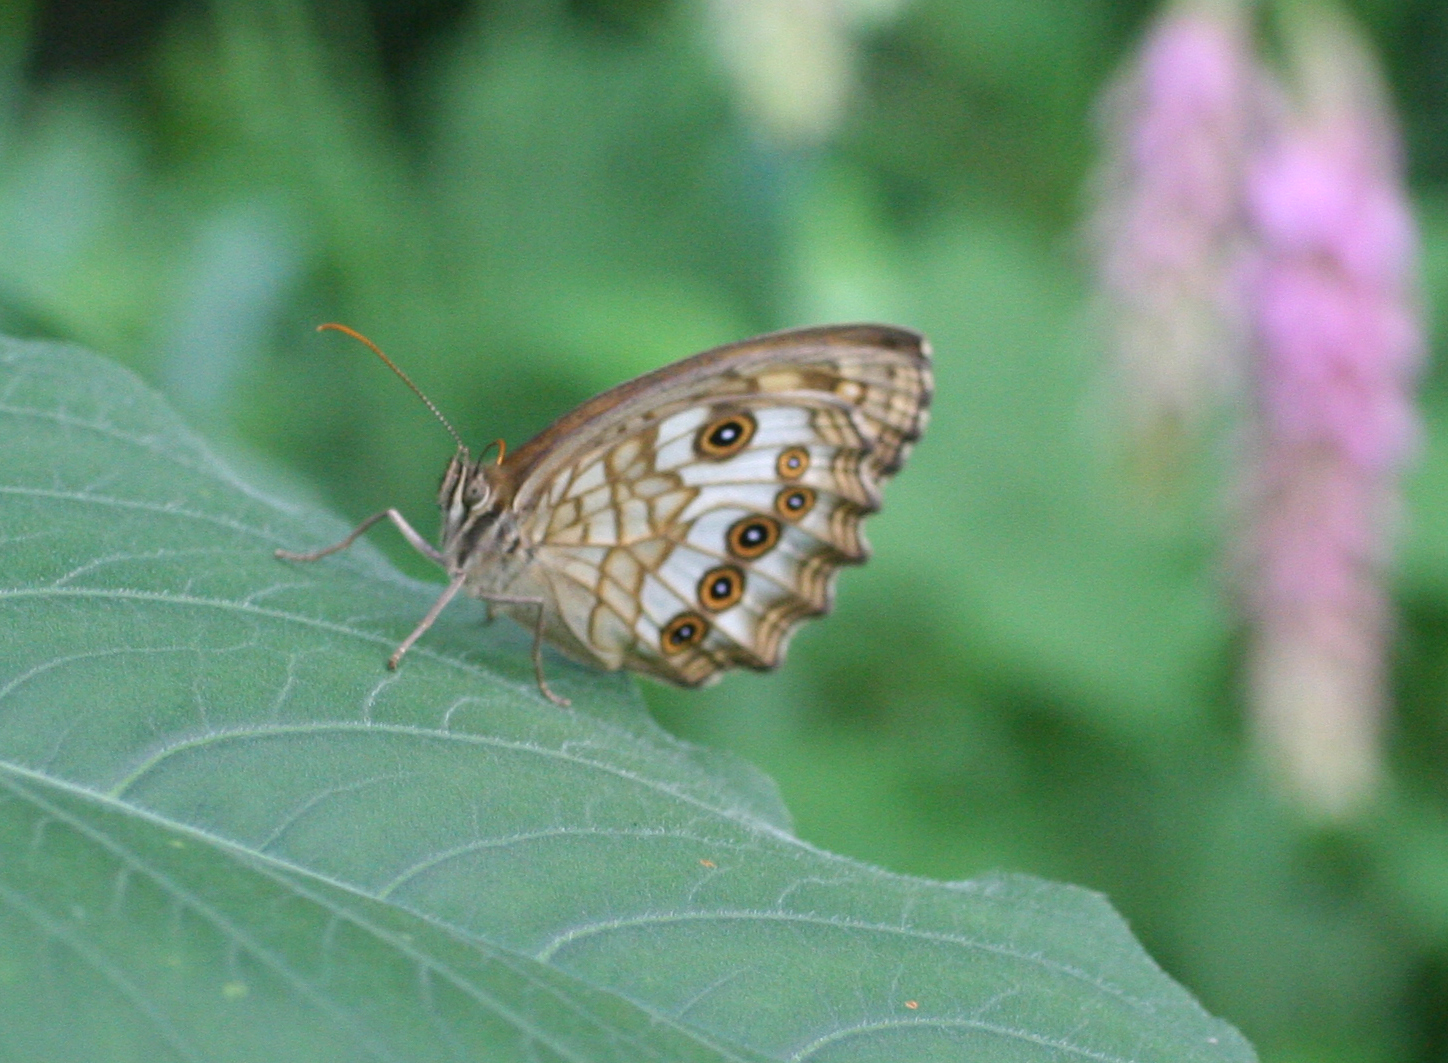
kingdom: Animalia
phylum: Arthropoda
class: Insecta
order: Lepidoptera
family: Nymphalidae
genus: Kirinia
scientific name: Kirinia
